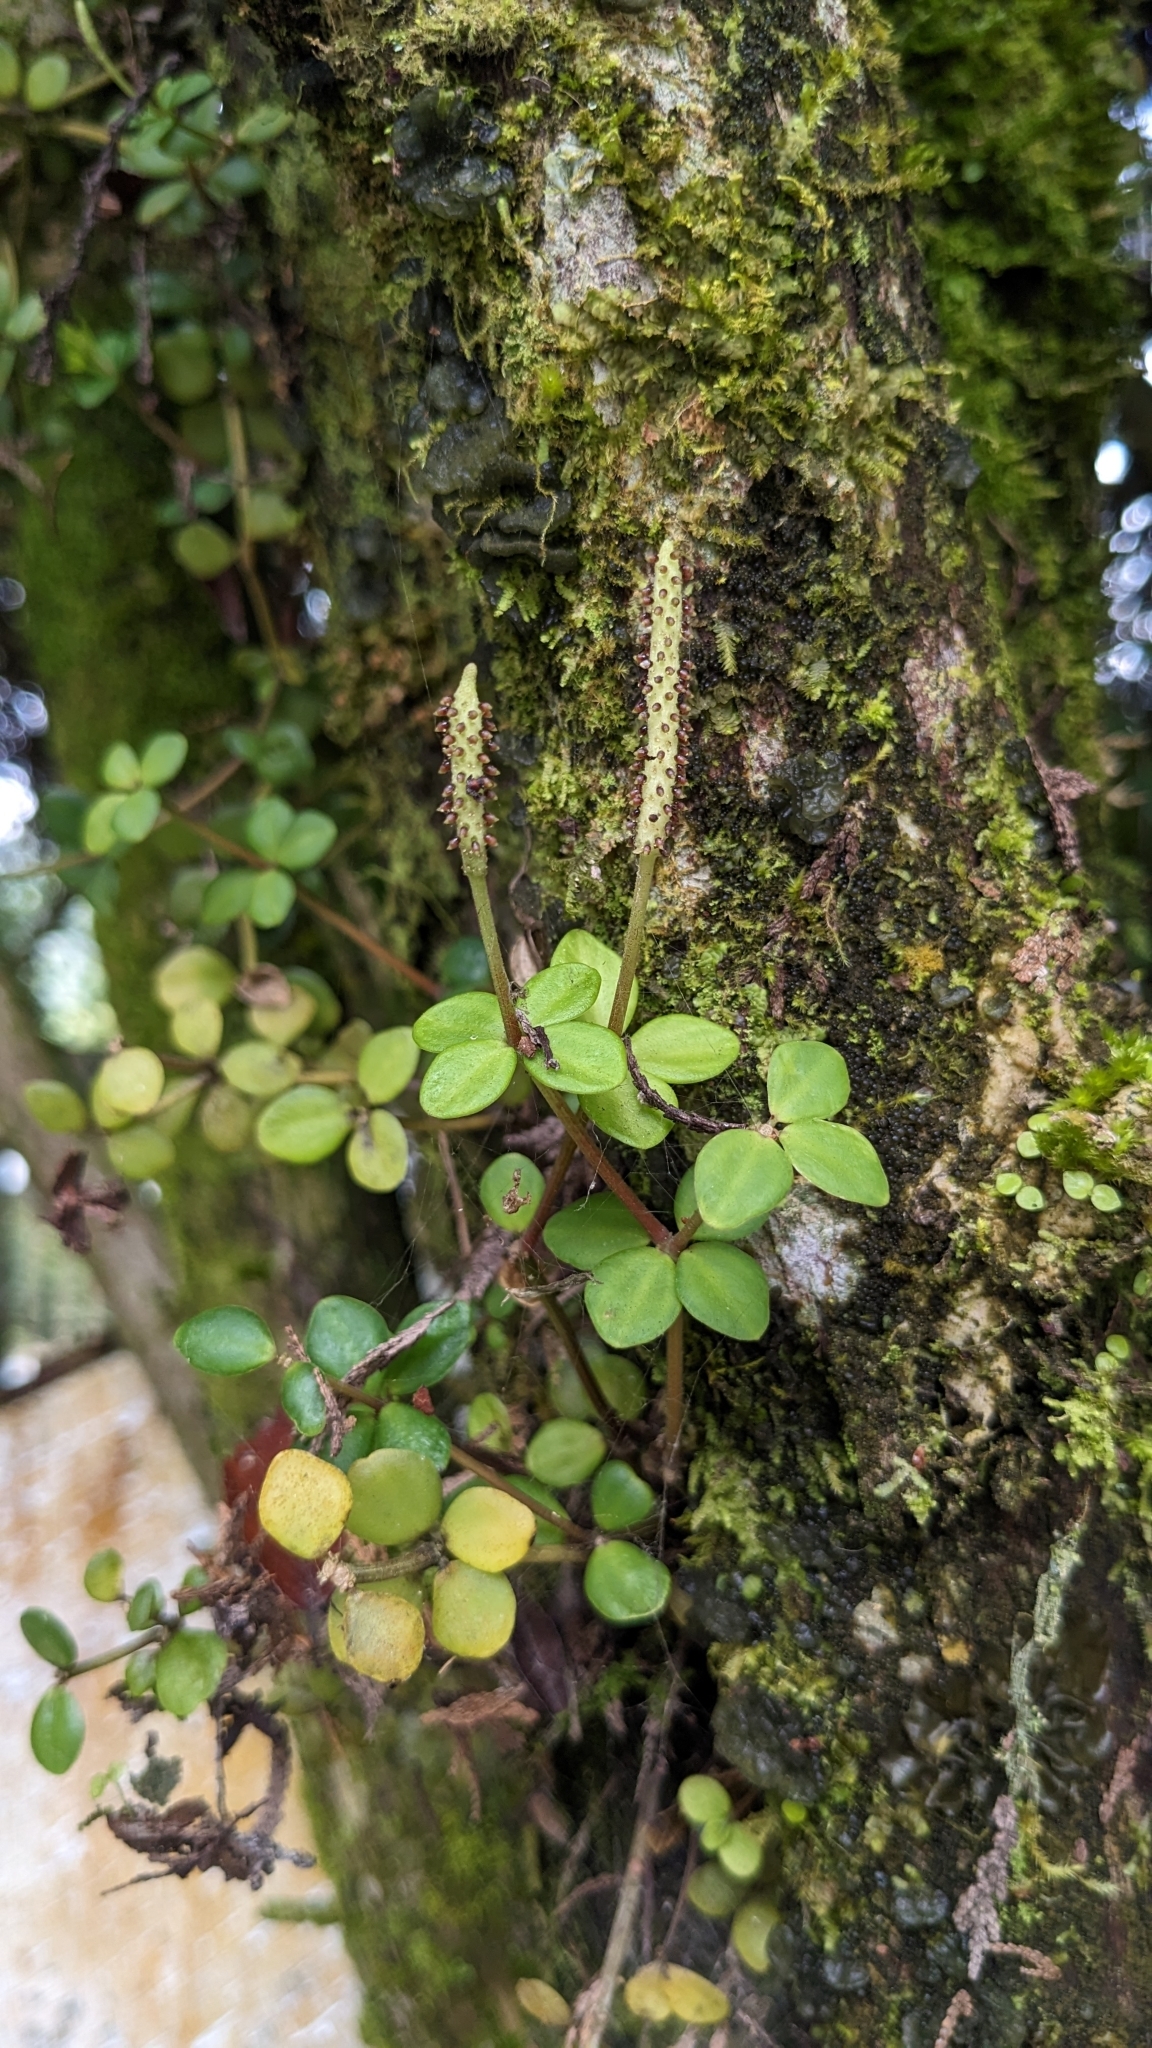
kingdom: Plantae
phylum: Tracheophyta
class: Magnoliopsida
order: Piperales
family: Piperaceae
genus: Peperomia
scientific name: Peperomia tetraphylla
